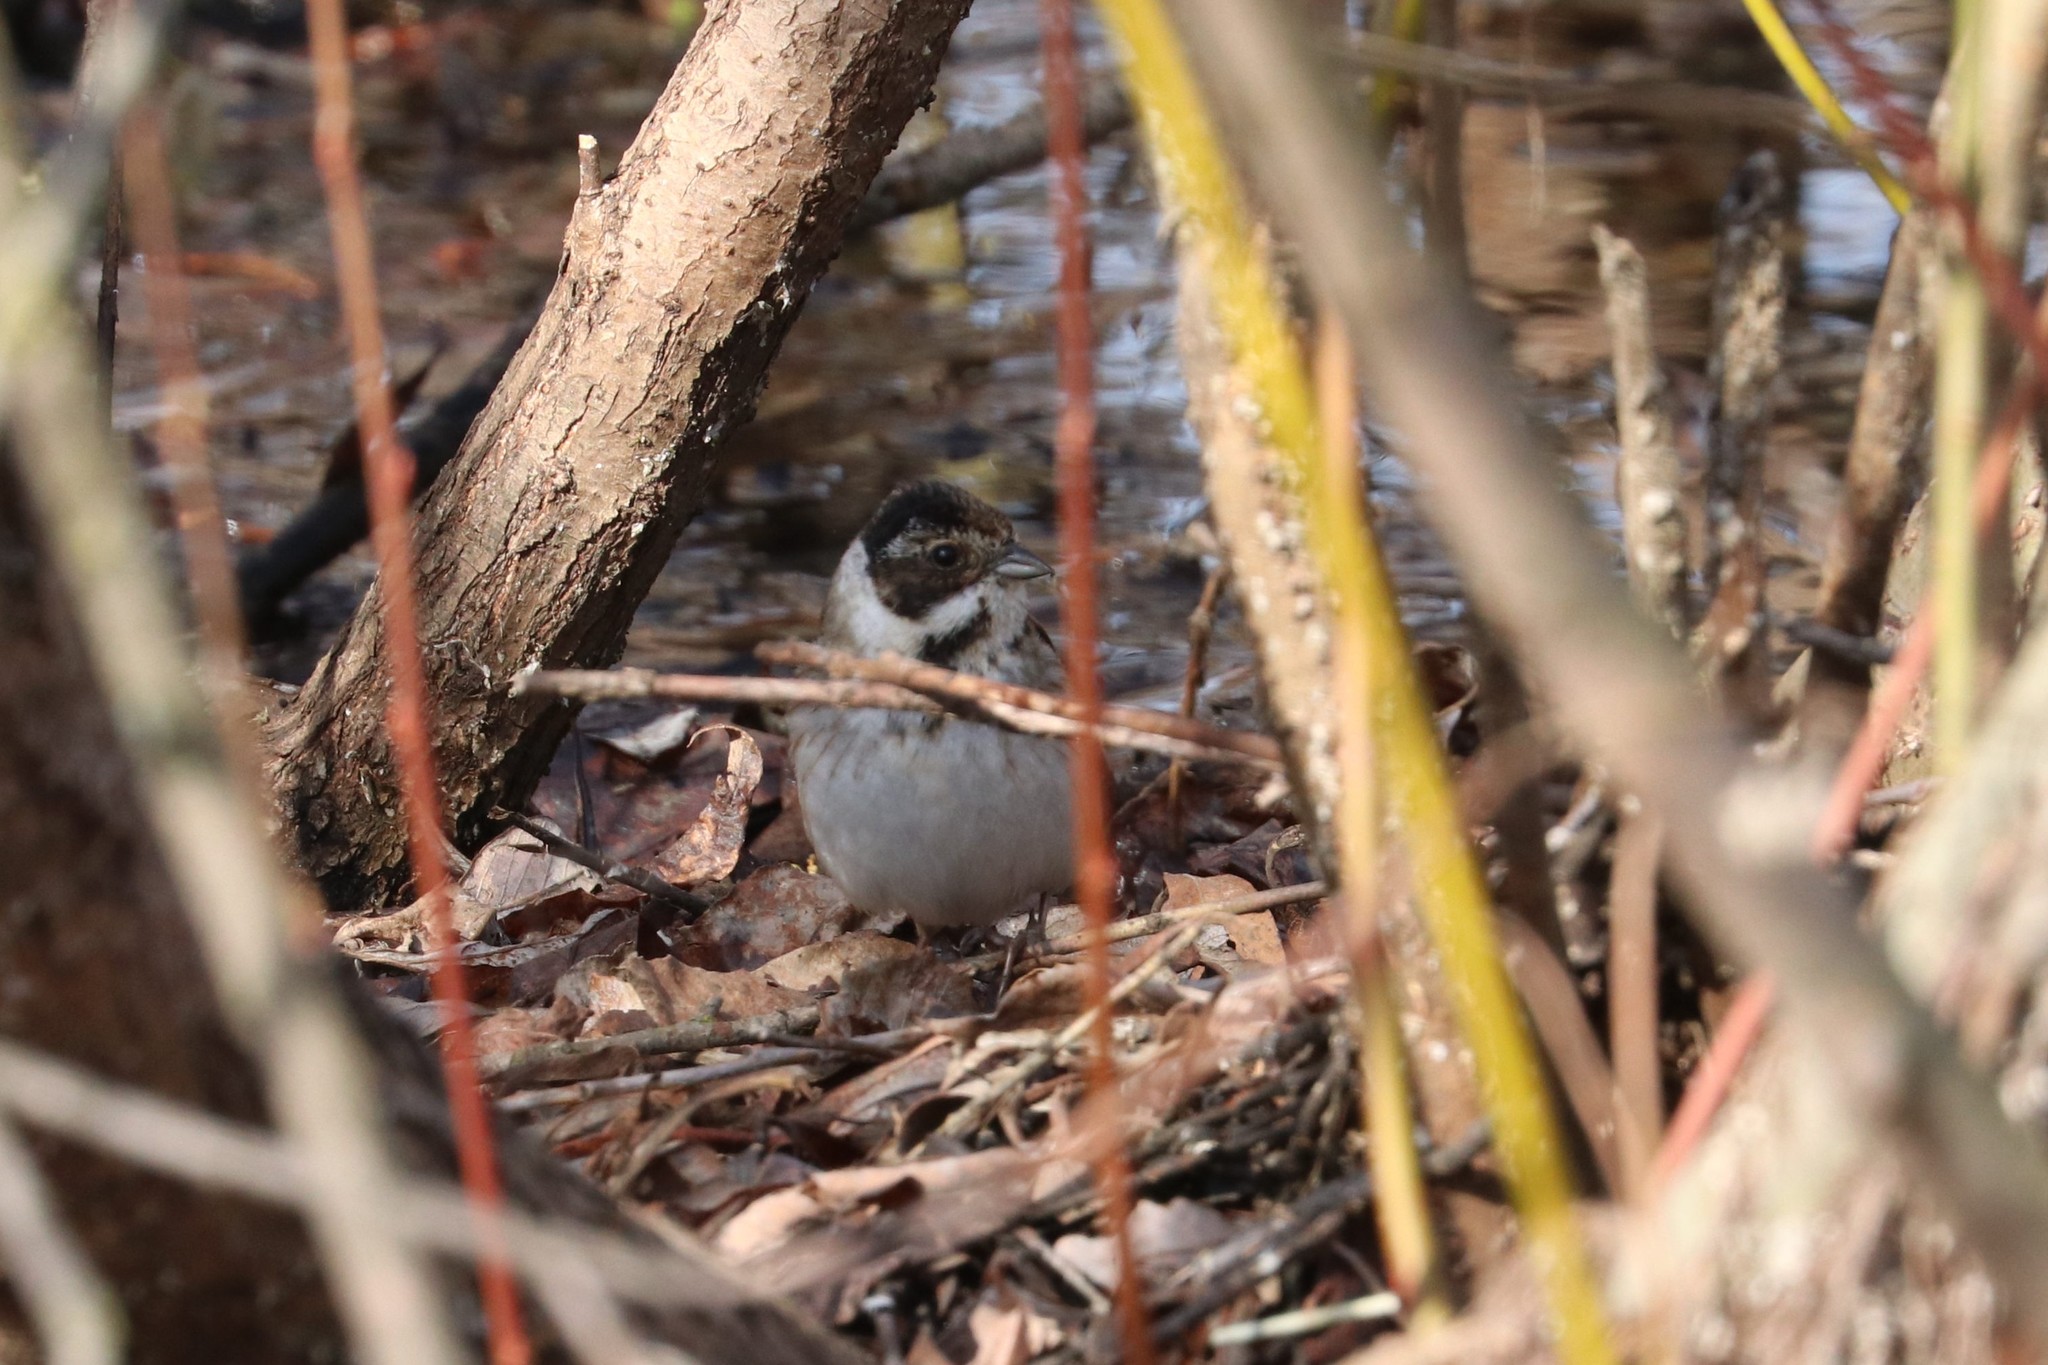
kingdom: Animalia
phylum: Chordata
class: Aves
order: Passeriformes
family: Emberizidae
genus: Emberiza
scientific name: Emberiza schoeniclus
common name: Reed bunting
